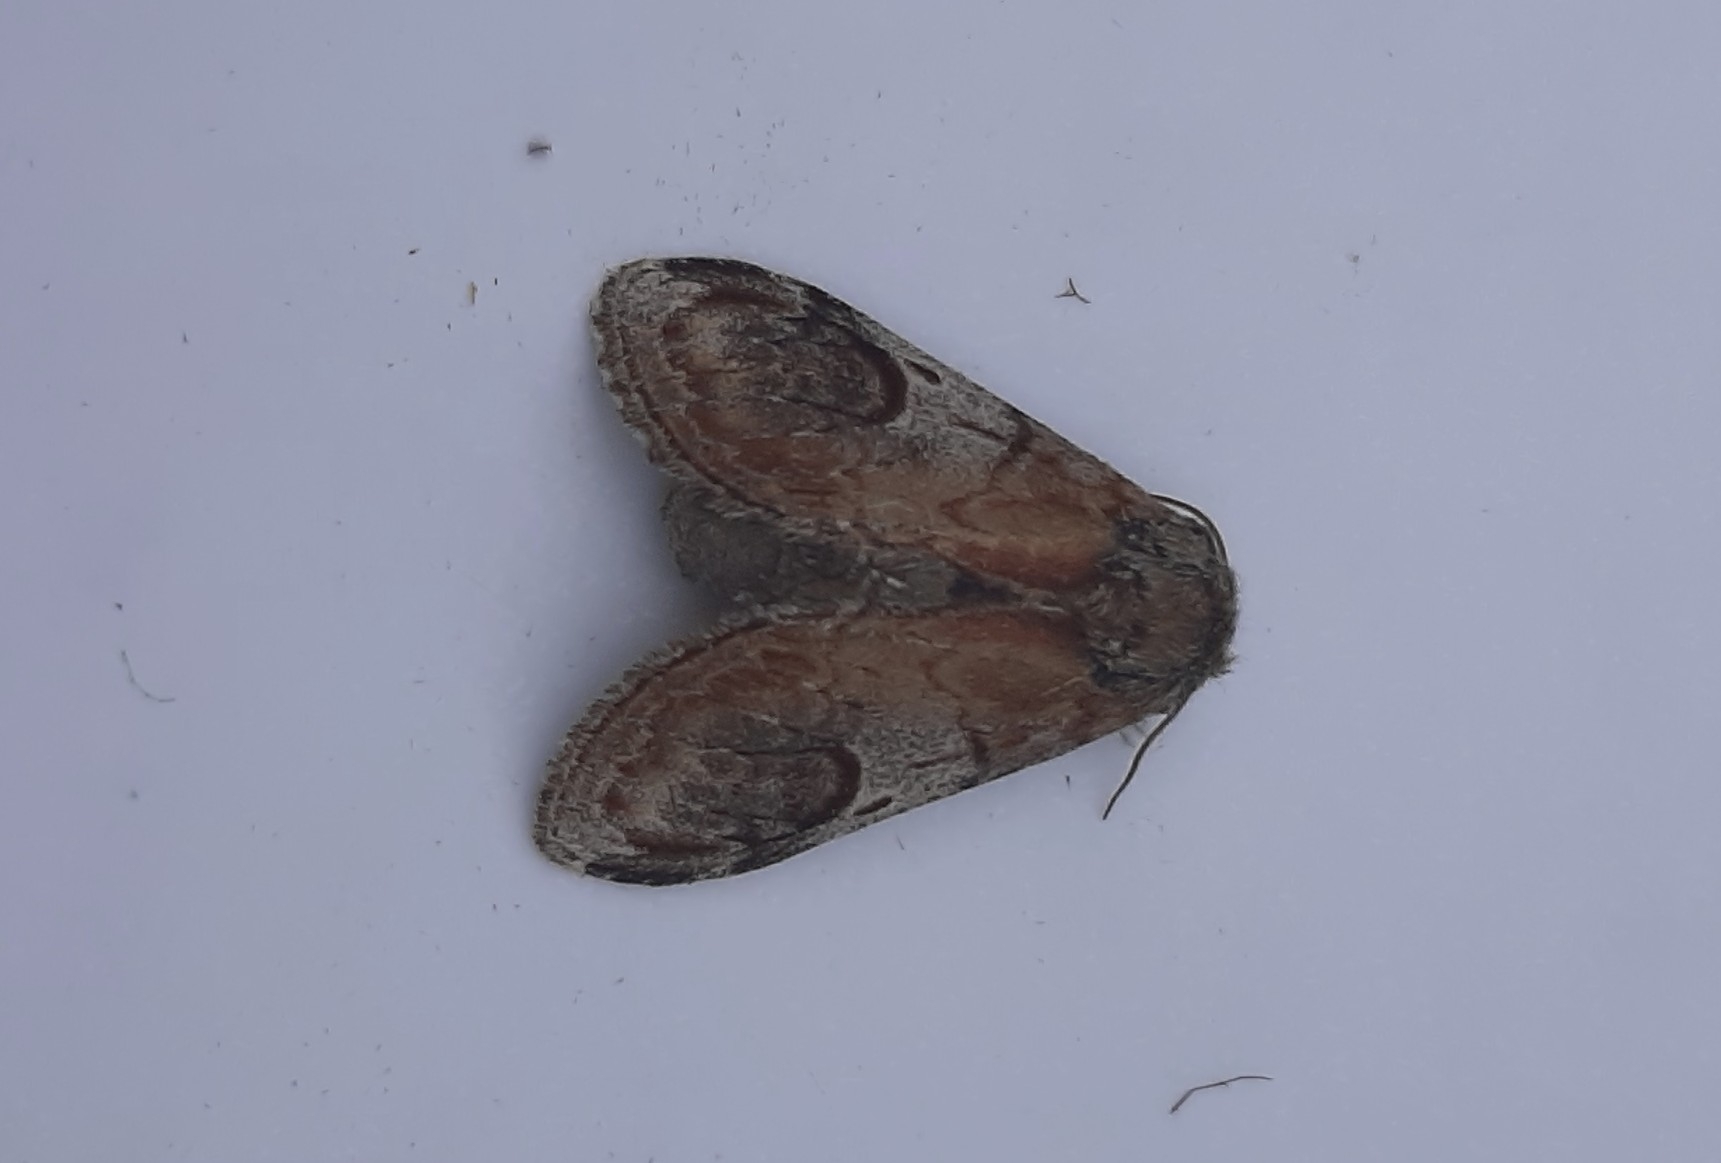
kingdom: Animalia
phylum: Arthropoda
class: Insecta
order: Lepidoptera
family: Notodontidae
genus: Notodonta
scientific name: Notodonta ziczac
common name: Pebble prominent
